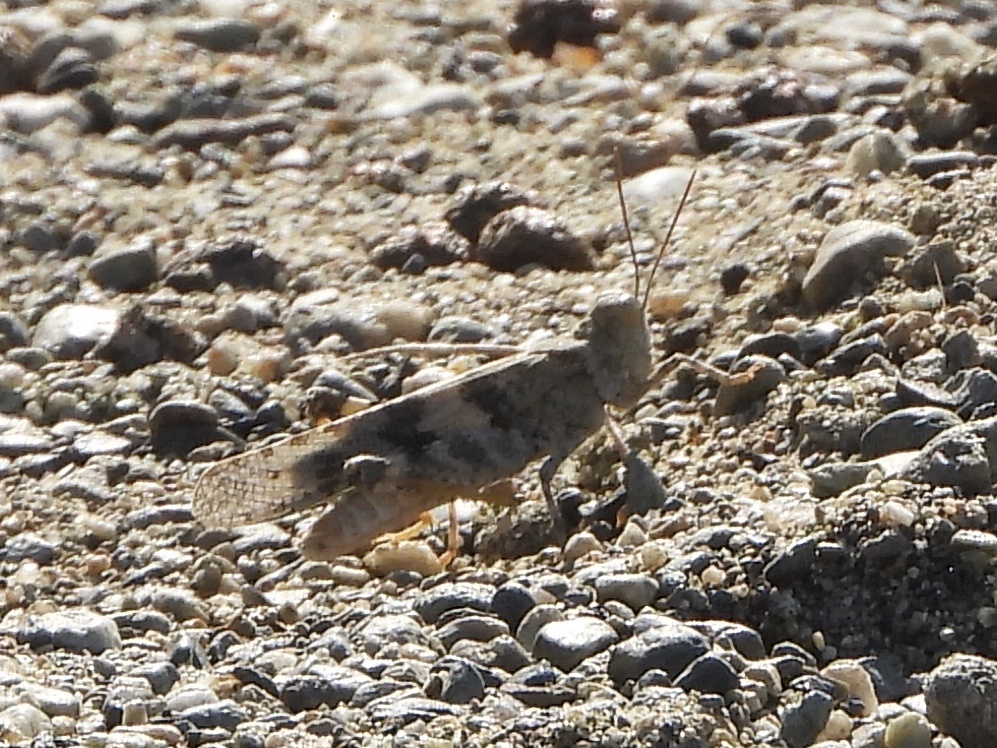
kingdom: Animalia
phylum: Arthropoda
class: Insecta
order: Orthoptera
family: Acrididae
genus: Trimerotropis
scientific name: Trimerotropis pallidipennis
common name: Pallid-winged grasshopper
